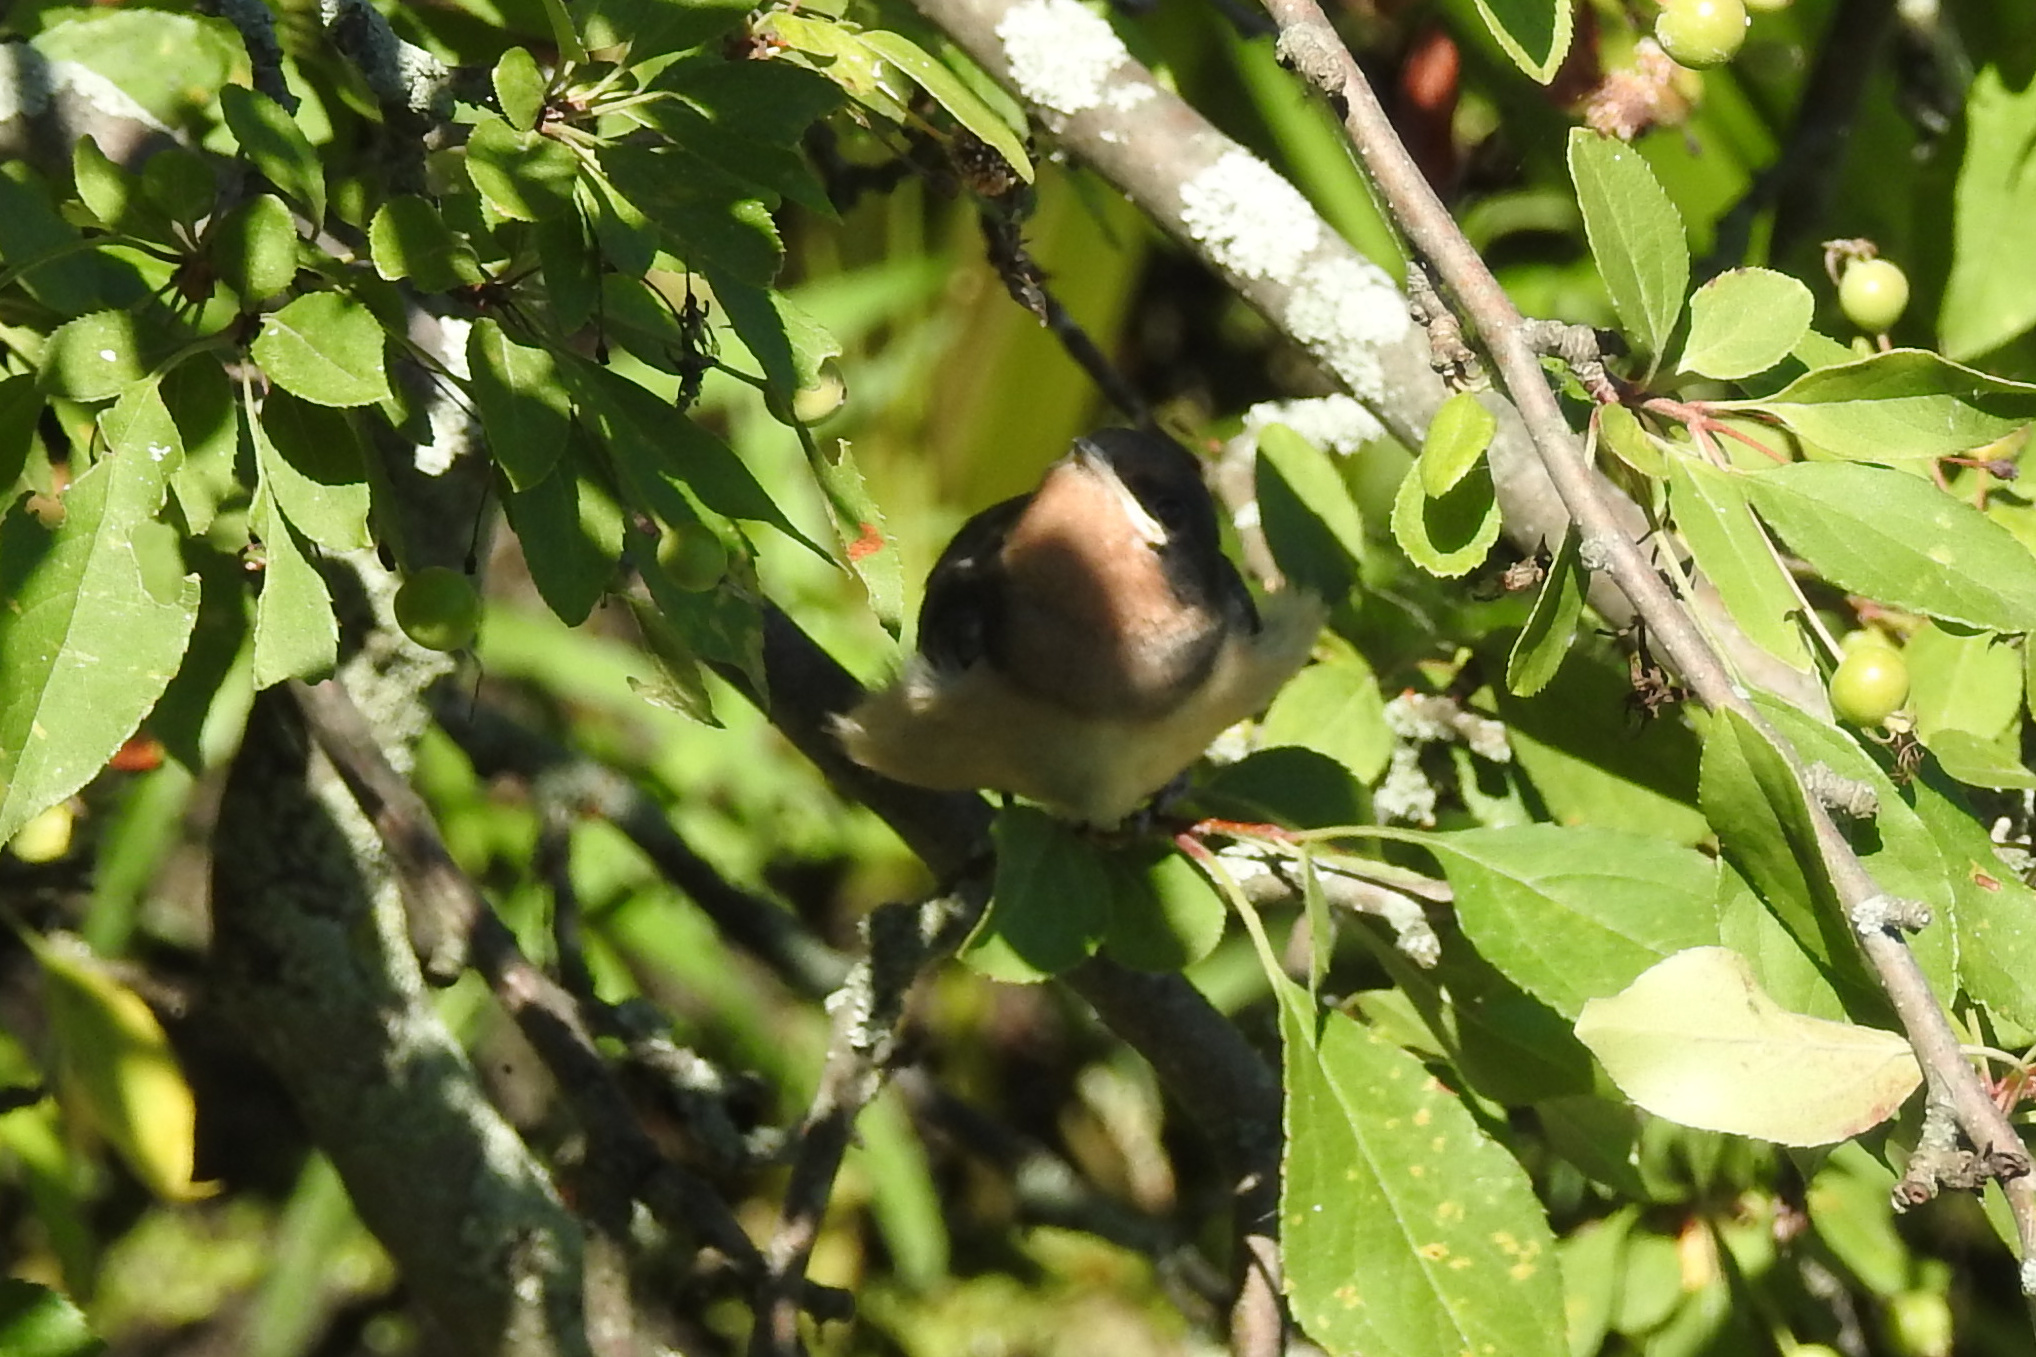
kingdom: Animalia
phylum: Chordata
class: Aves
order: Passeriformes
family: Hirundinidae
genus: Hirundo
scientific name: Hirundo rustica
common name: Barn swallow
